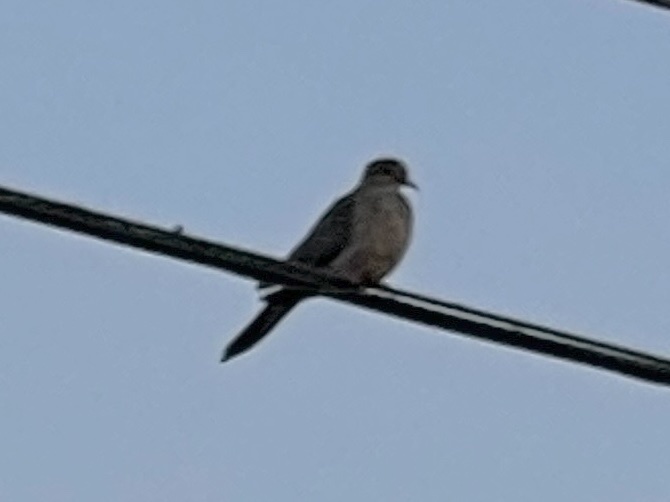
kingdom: Animalia
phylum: Chordata
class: Aves
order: Columbiformes
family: Columbidae
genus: Zenaida
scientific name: Zenaida macroura
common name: Mourning dove
